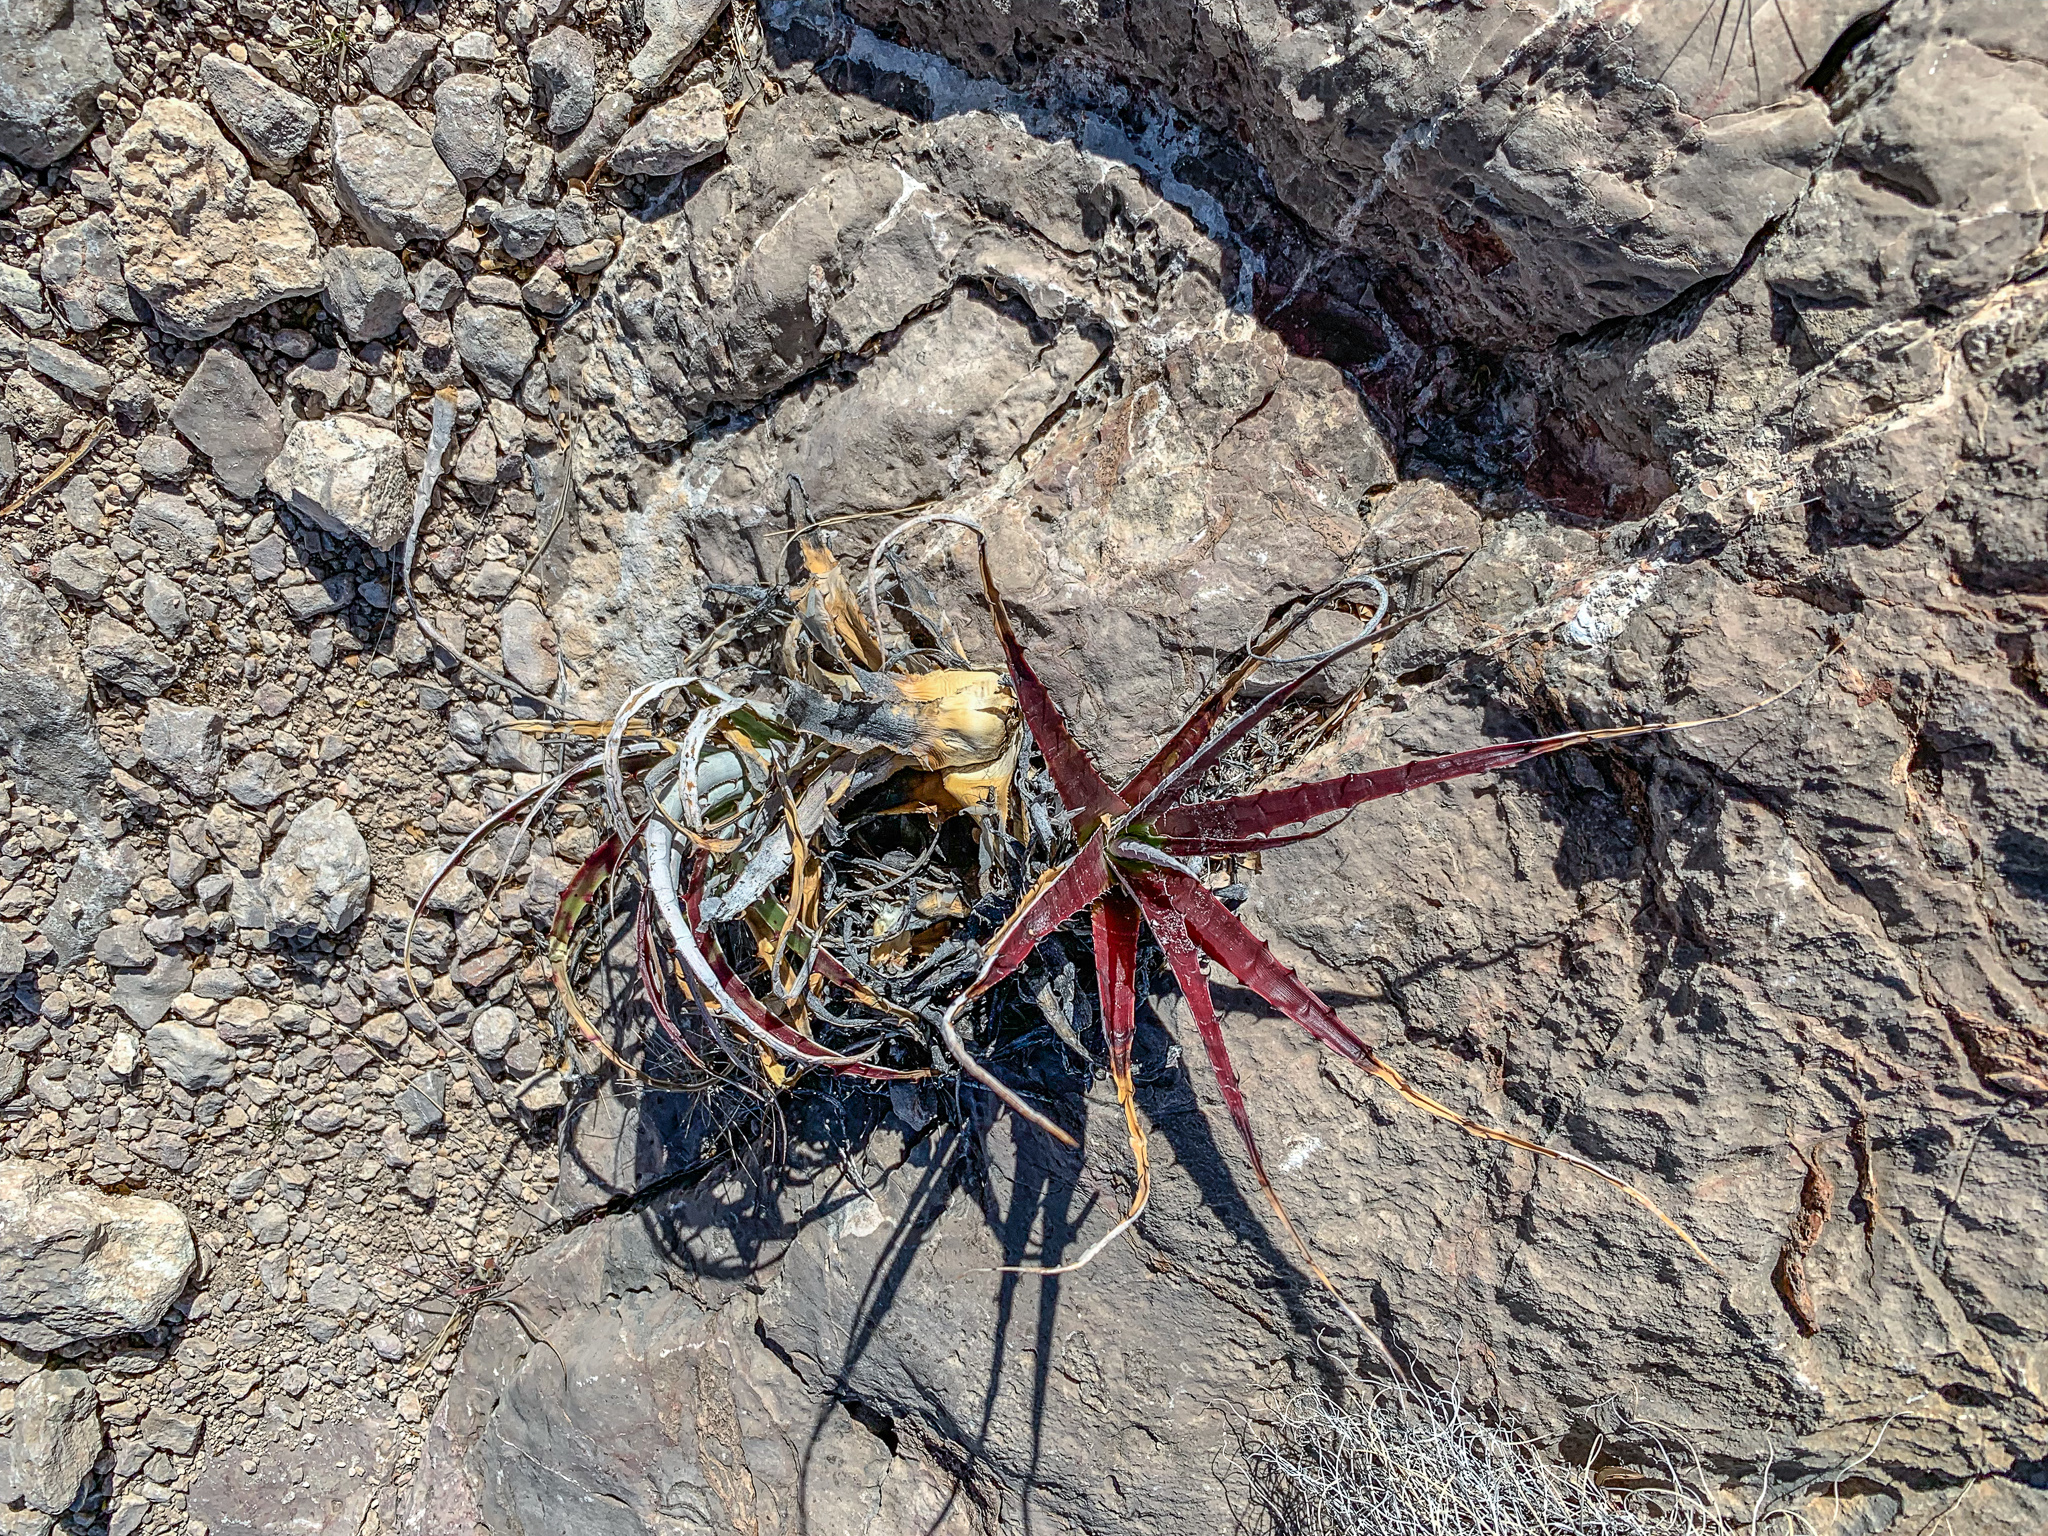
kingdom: Plantae
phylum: Tracheophyta
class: Liliopsida
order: Poales
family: Bromeliaceae
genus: Hechtia
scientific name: Hechtia texensis
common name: False agave
